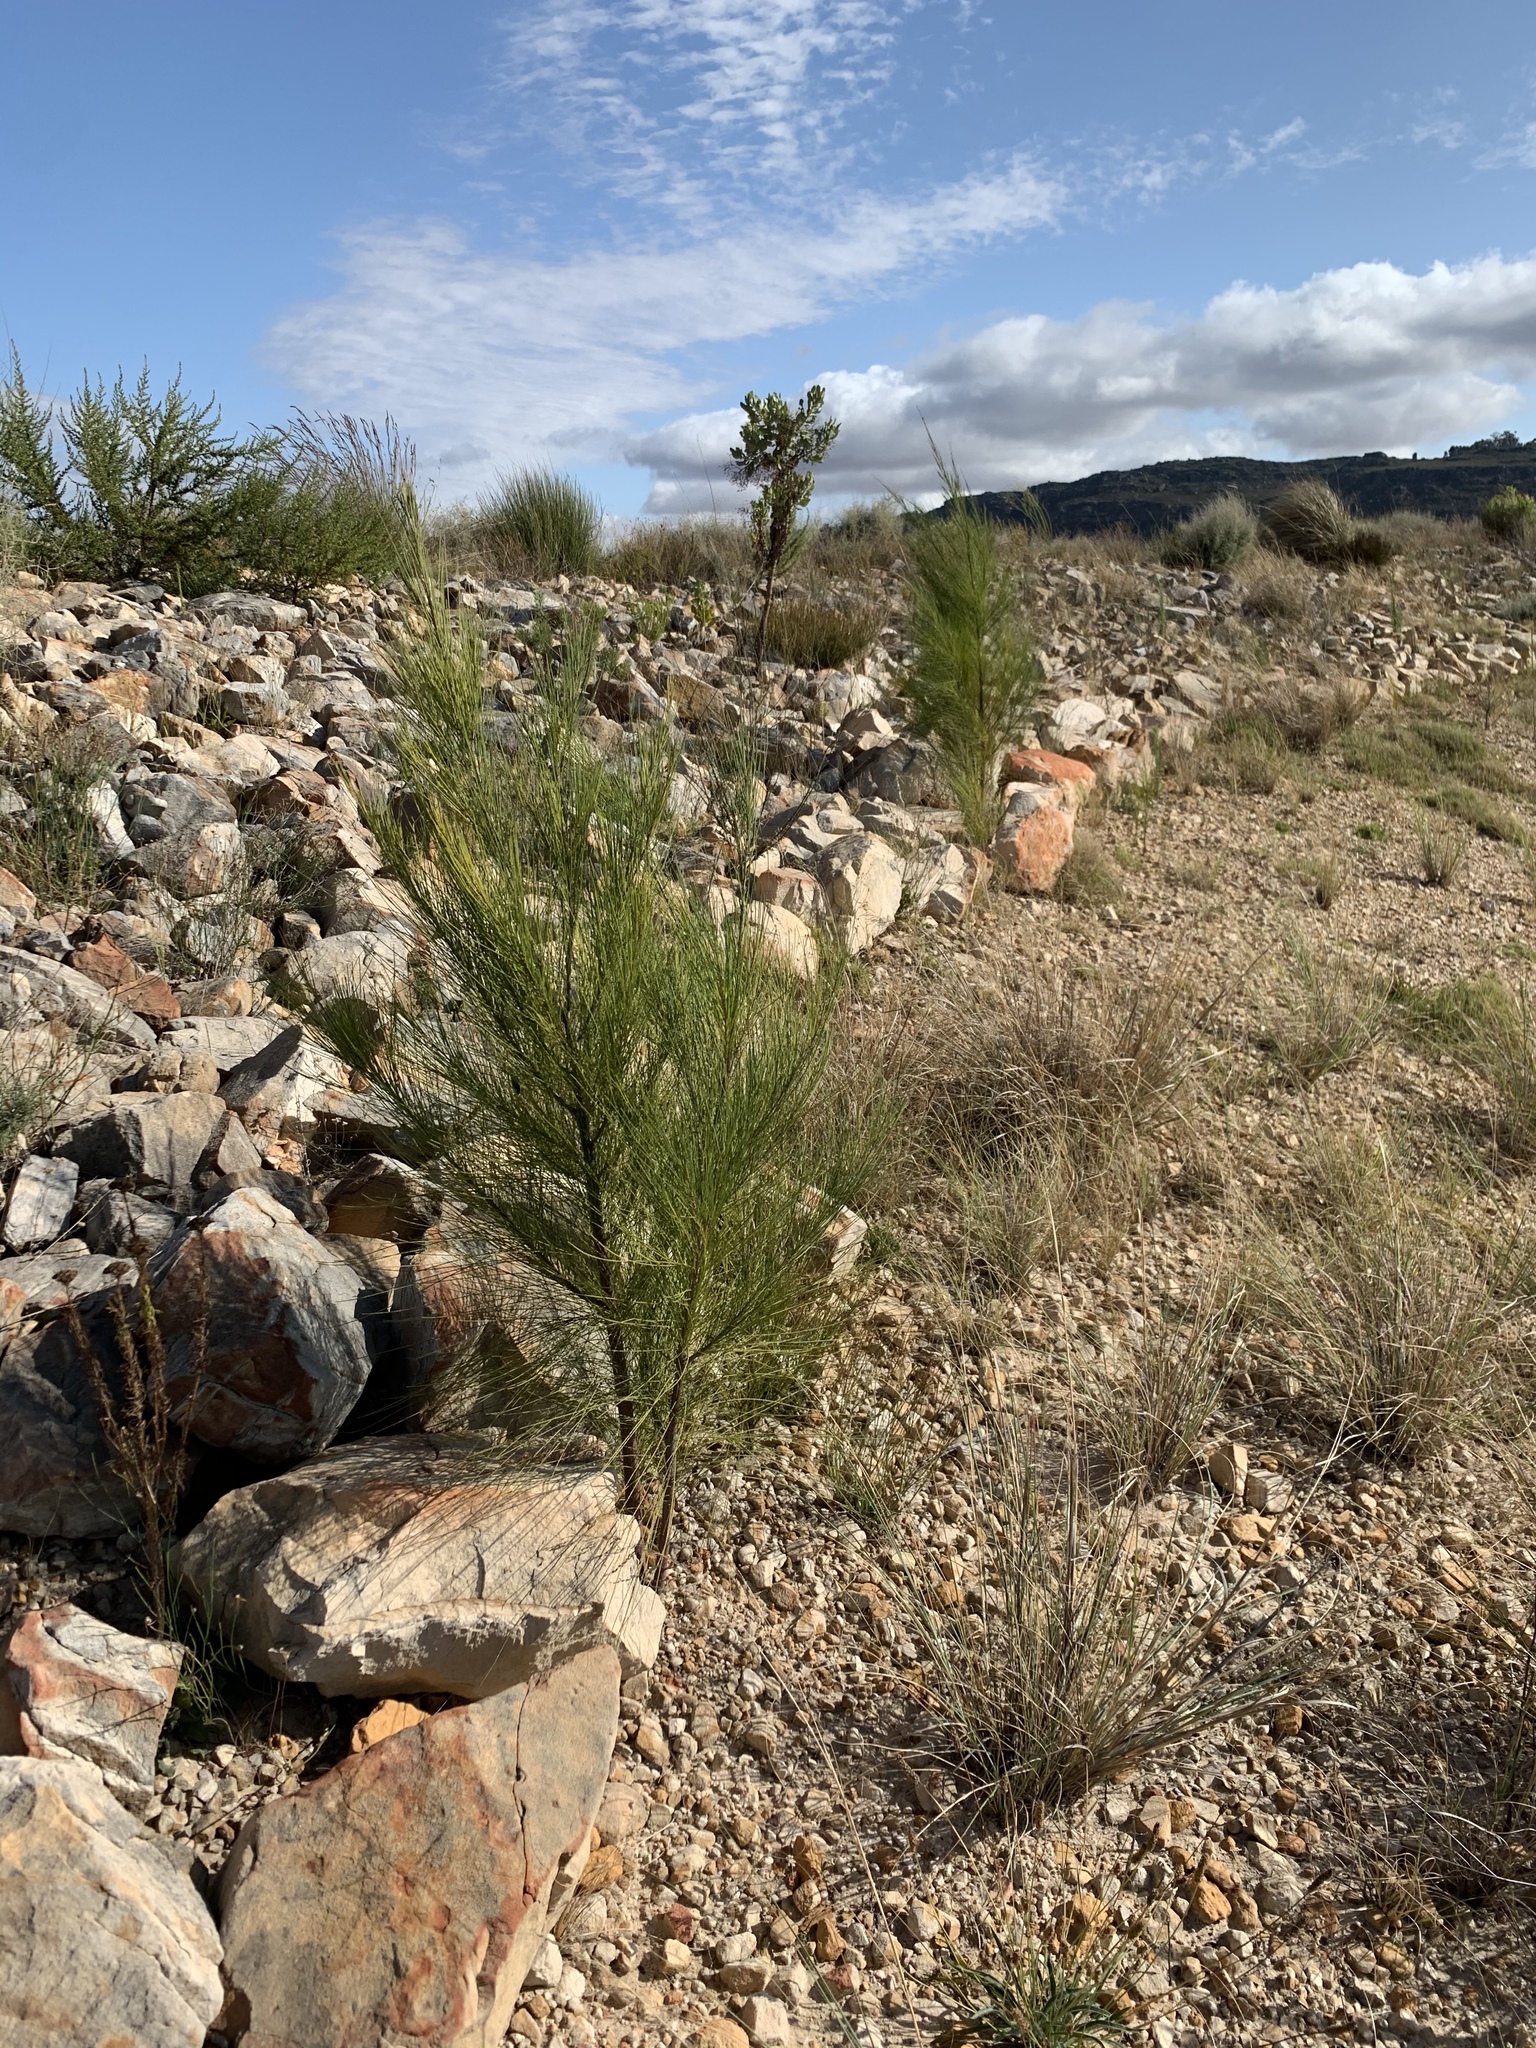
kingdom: Plantae
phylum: Tracheophyta
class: Magnoliopsida
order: Fagales
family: Casuarinaceae
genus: Casuarina
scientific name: Casuarina cunninghamiana
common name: River sheoak
